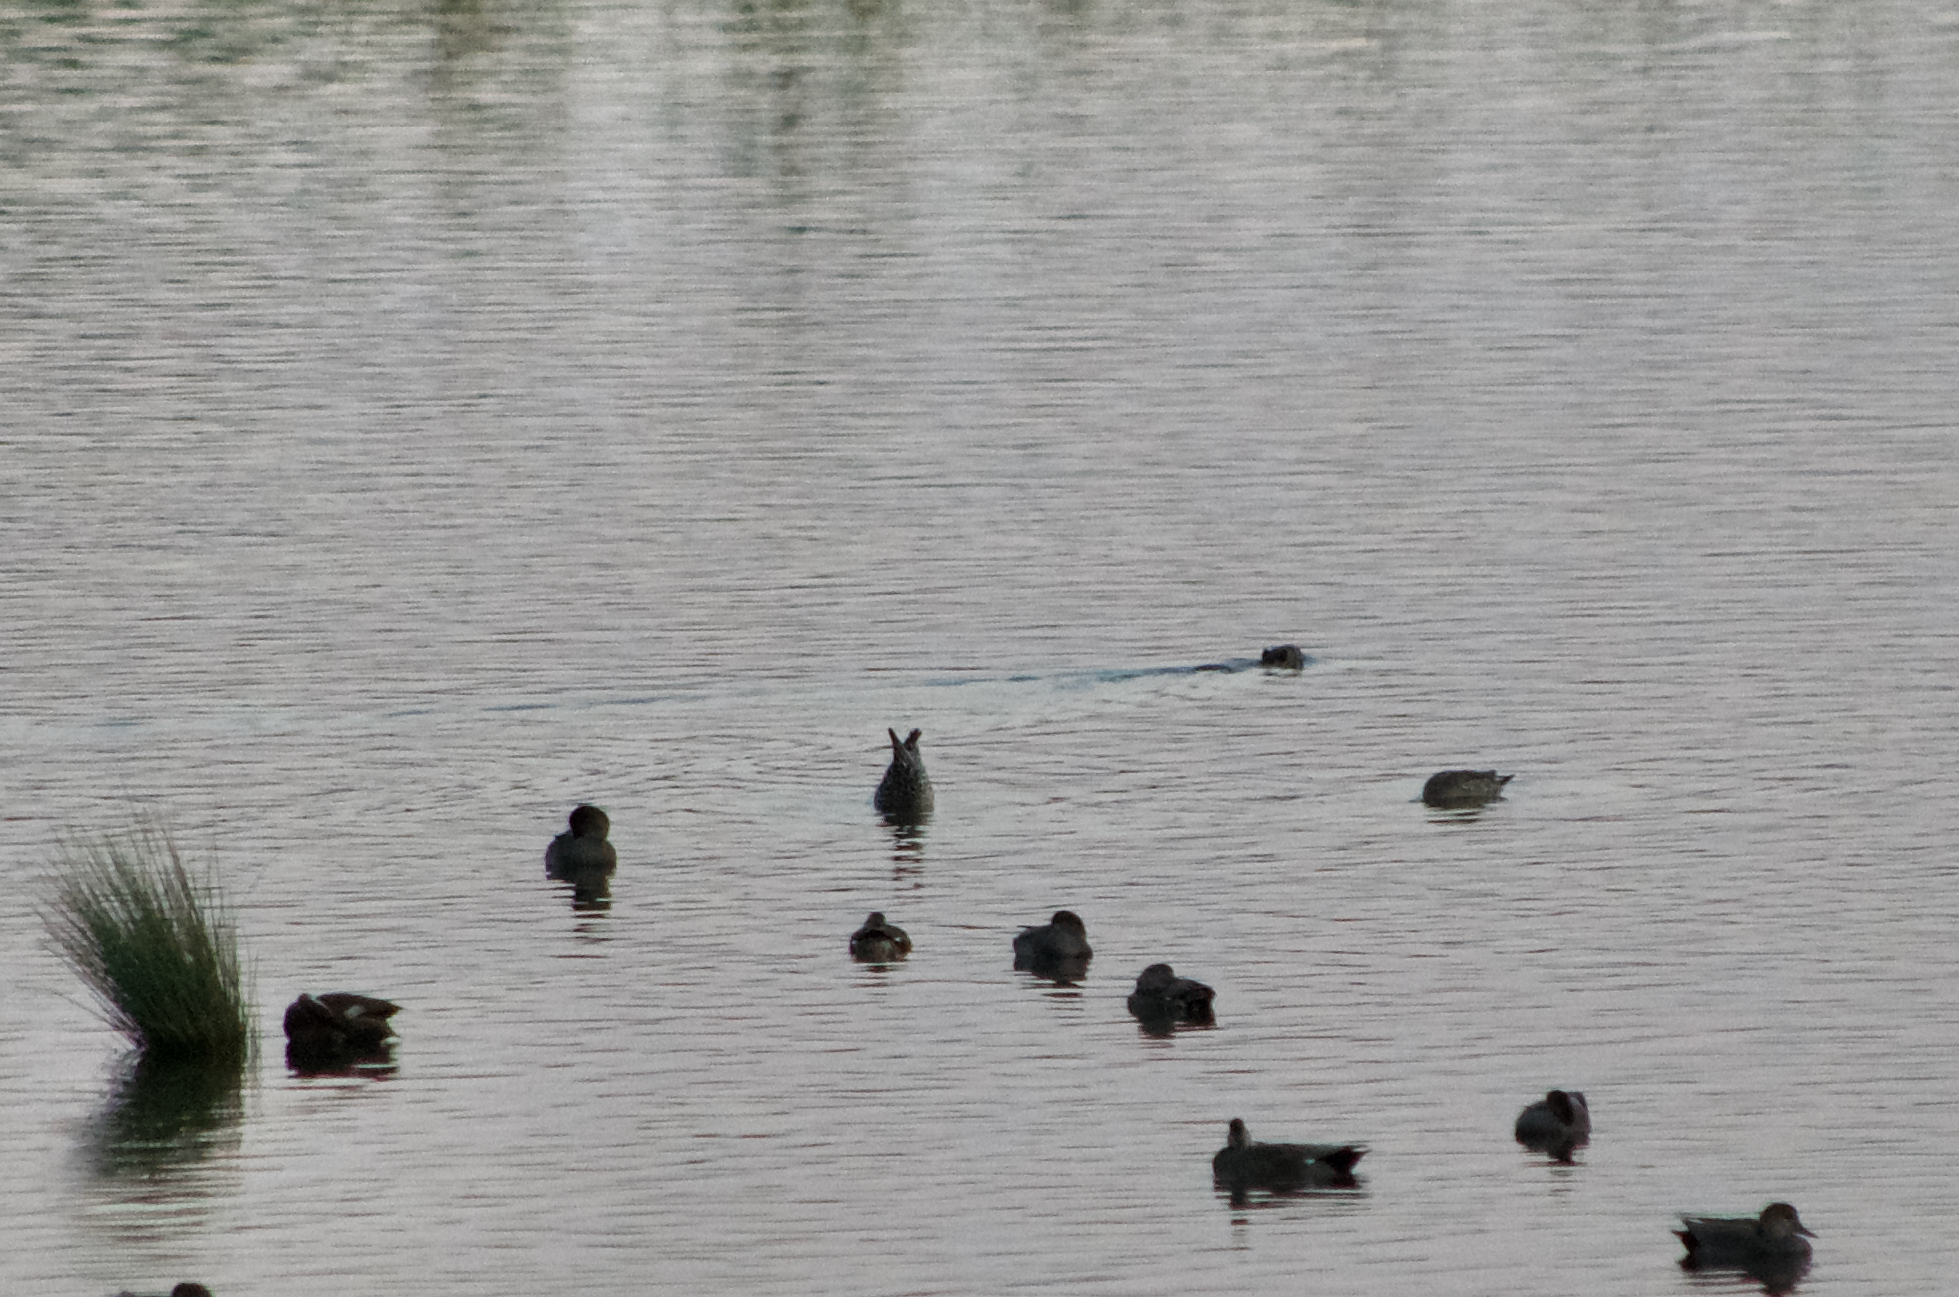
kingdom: Animalia
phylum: Chordata
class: Aves
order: Anseriformes
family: Anatidae
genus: Mareca
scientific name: Mareca strepera
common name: Gadwall
